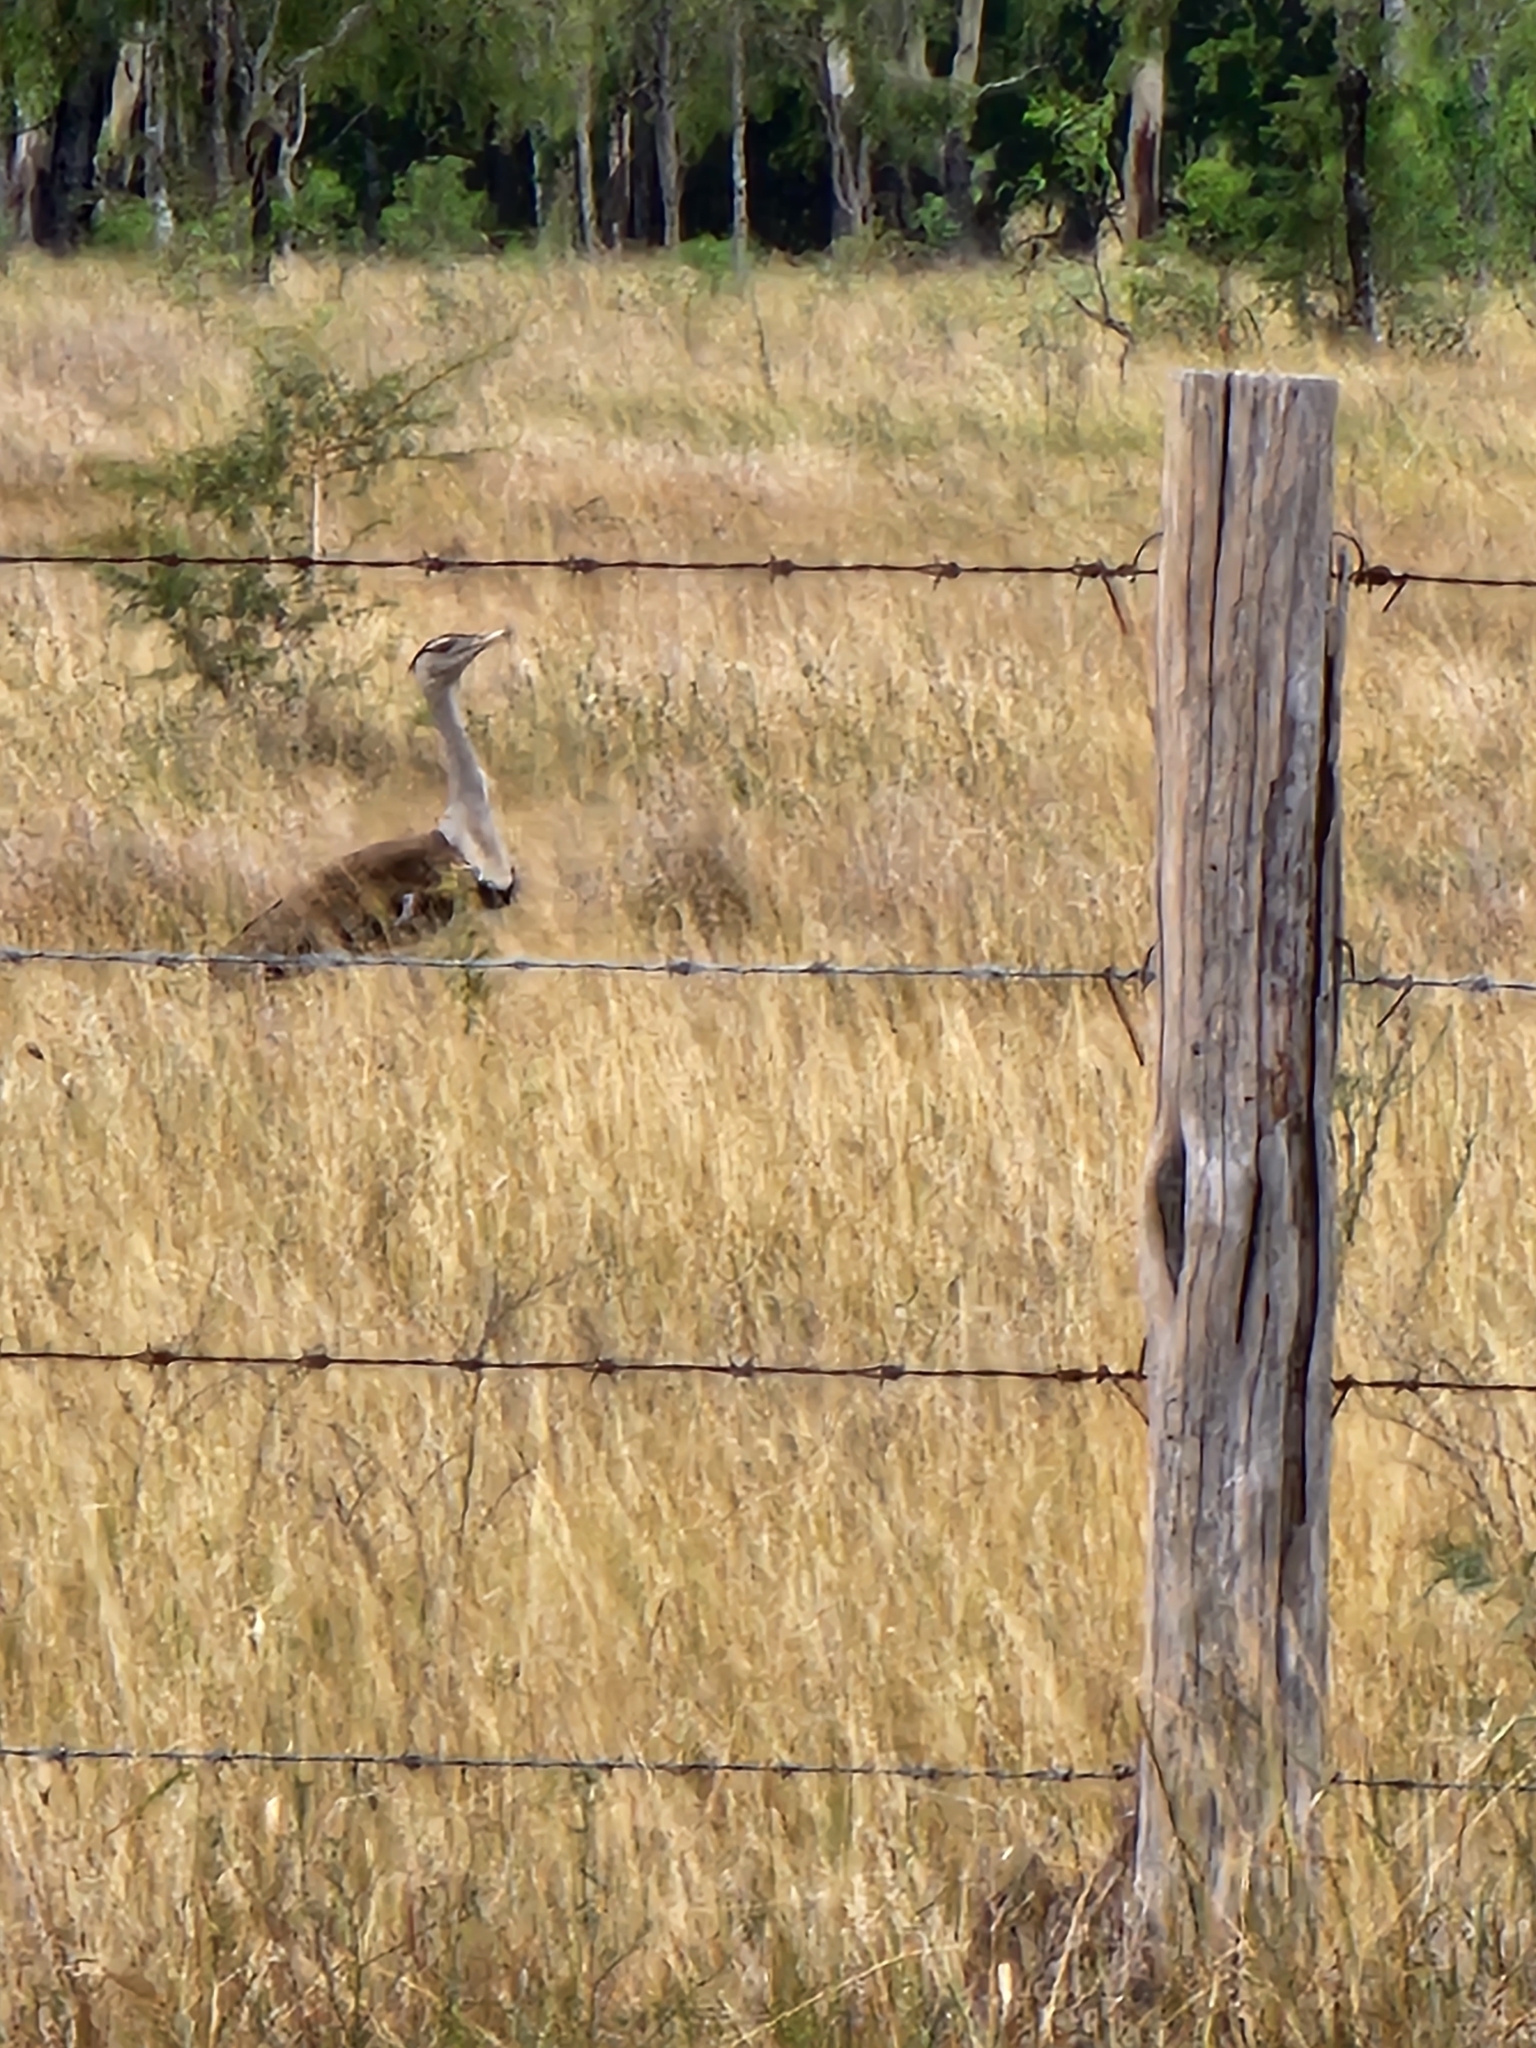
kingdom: Animalia
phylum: Chordata
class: Aves
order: Otidiformes
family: Otididae
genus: Ardeotis
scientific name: Ardeotis australis
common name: Australian bustard
